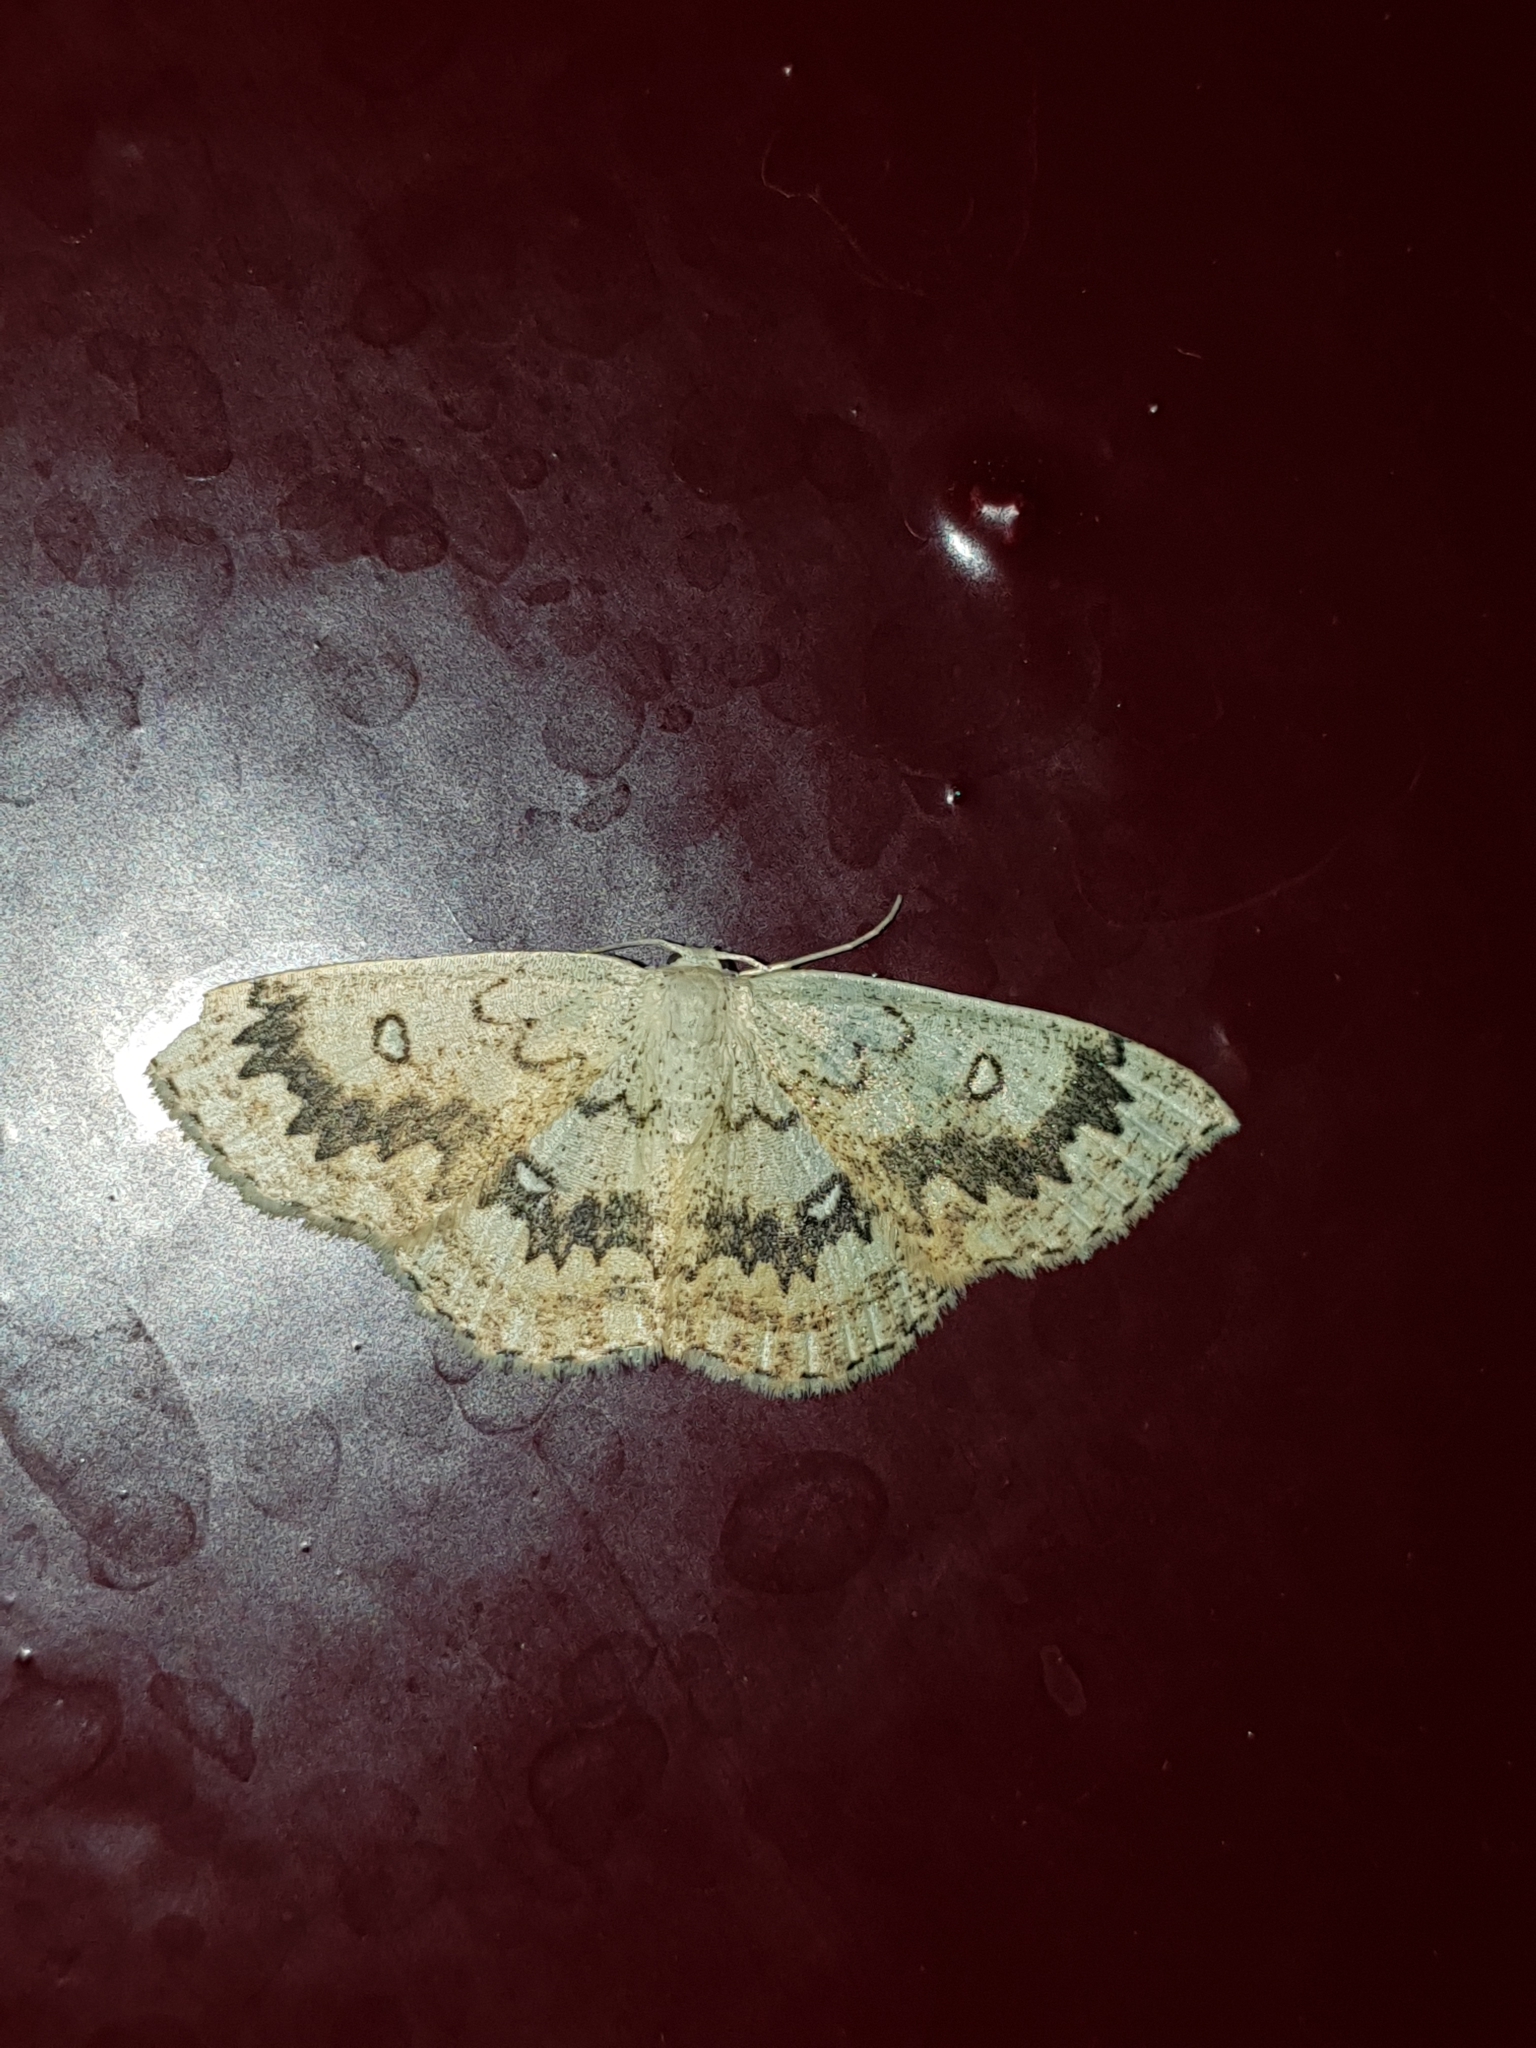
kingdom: Animalia
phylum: Arthropoda
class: Insecta
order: Lepidoptera
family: Geometridae
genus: Cyclophora
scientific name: Cyclophora annularia
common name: Mocha
